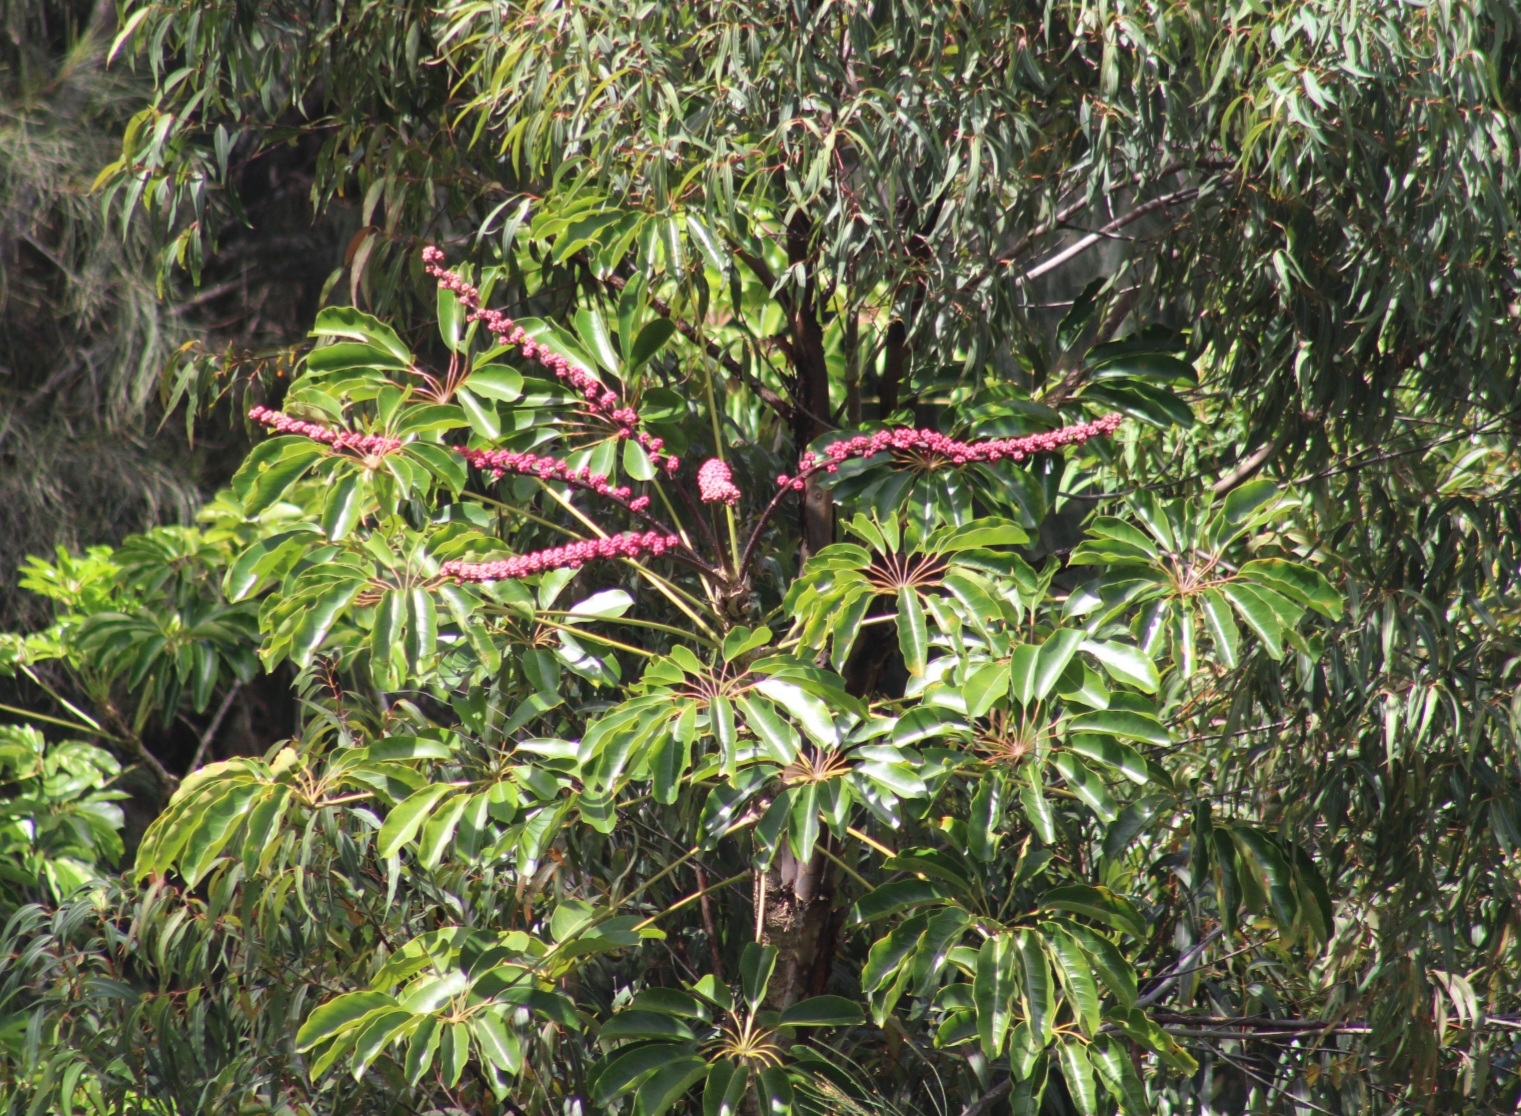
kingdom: Plantae
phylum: Tracheophyta
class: Magnoliopsida
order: Apiales
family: Araliaceae
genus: Heptapleurum
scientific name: Heptapleurum actinophyllum
